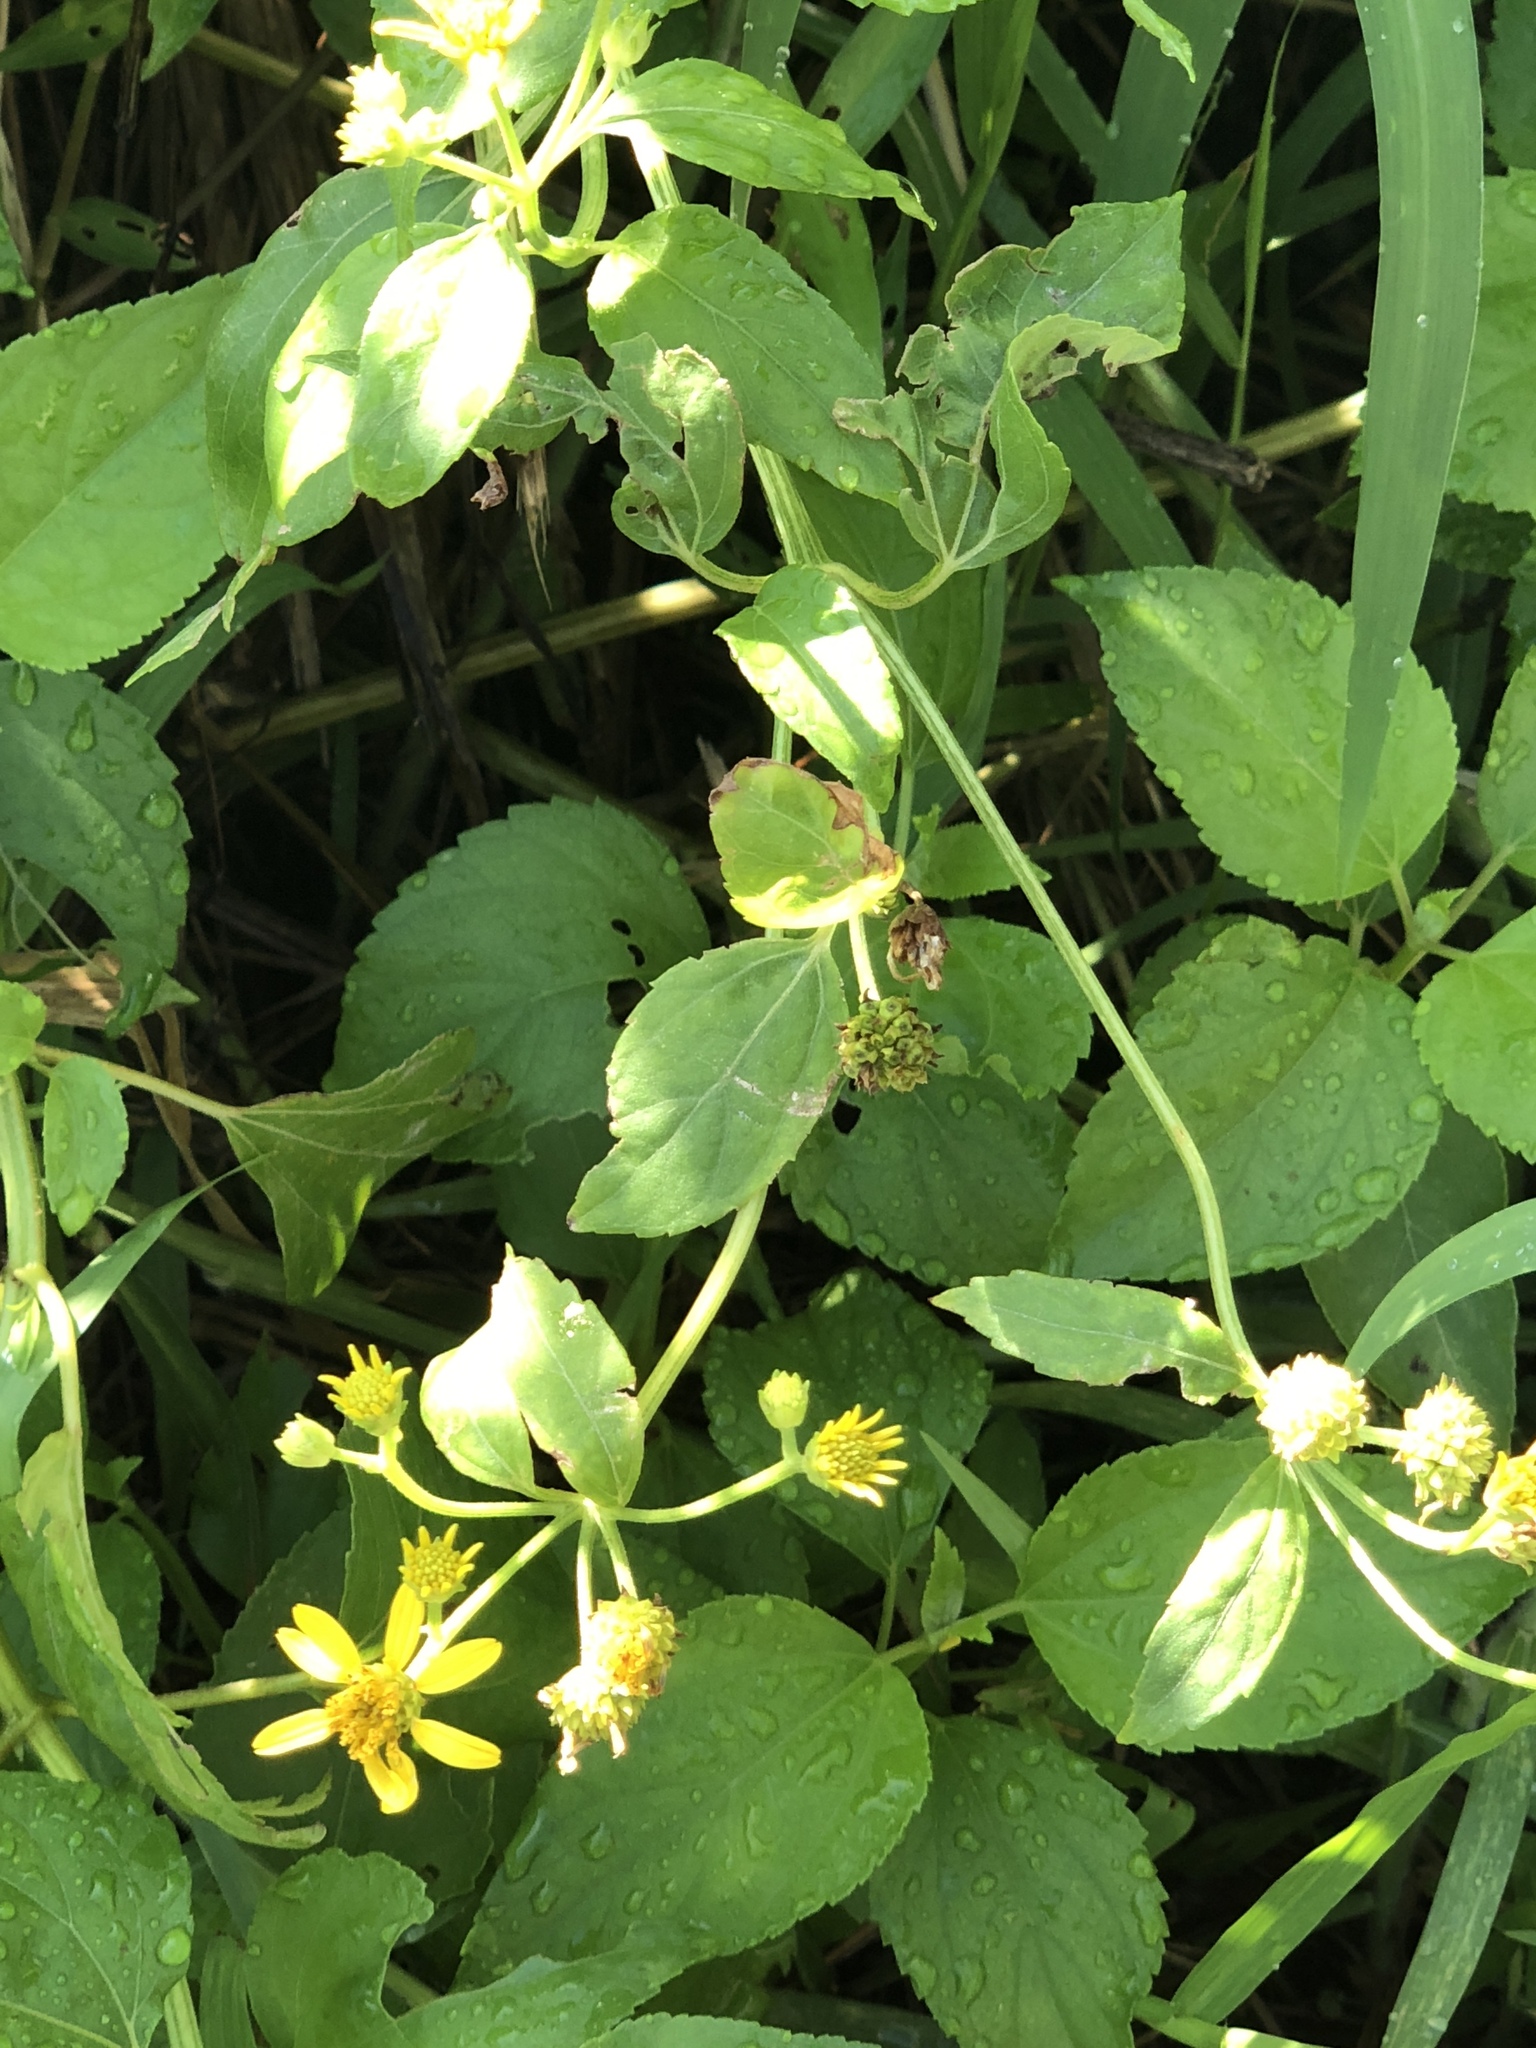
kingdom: Plantae
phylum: Tracheophyta
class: Magnoliopsida
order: Asterales
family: Asteraceae
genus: Wollastonia
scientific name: Wollastonia biflora
